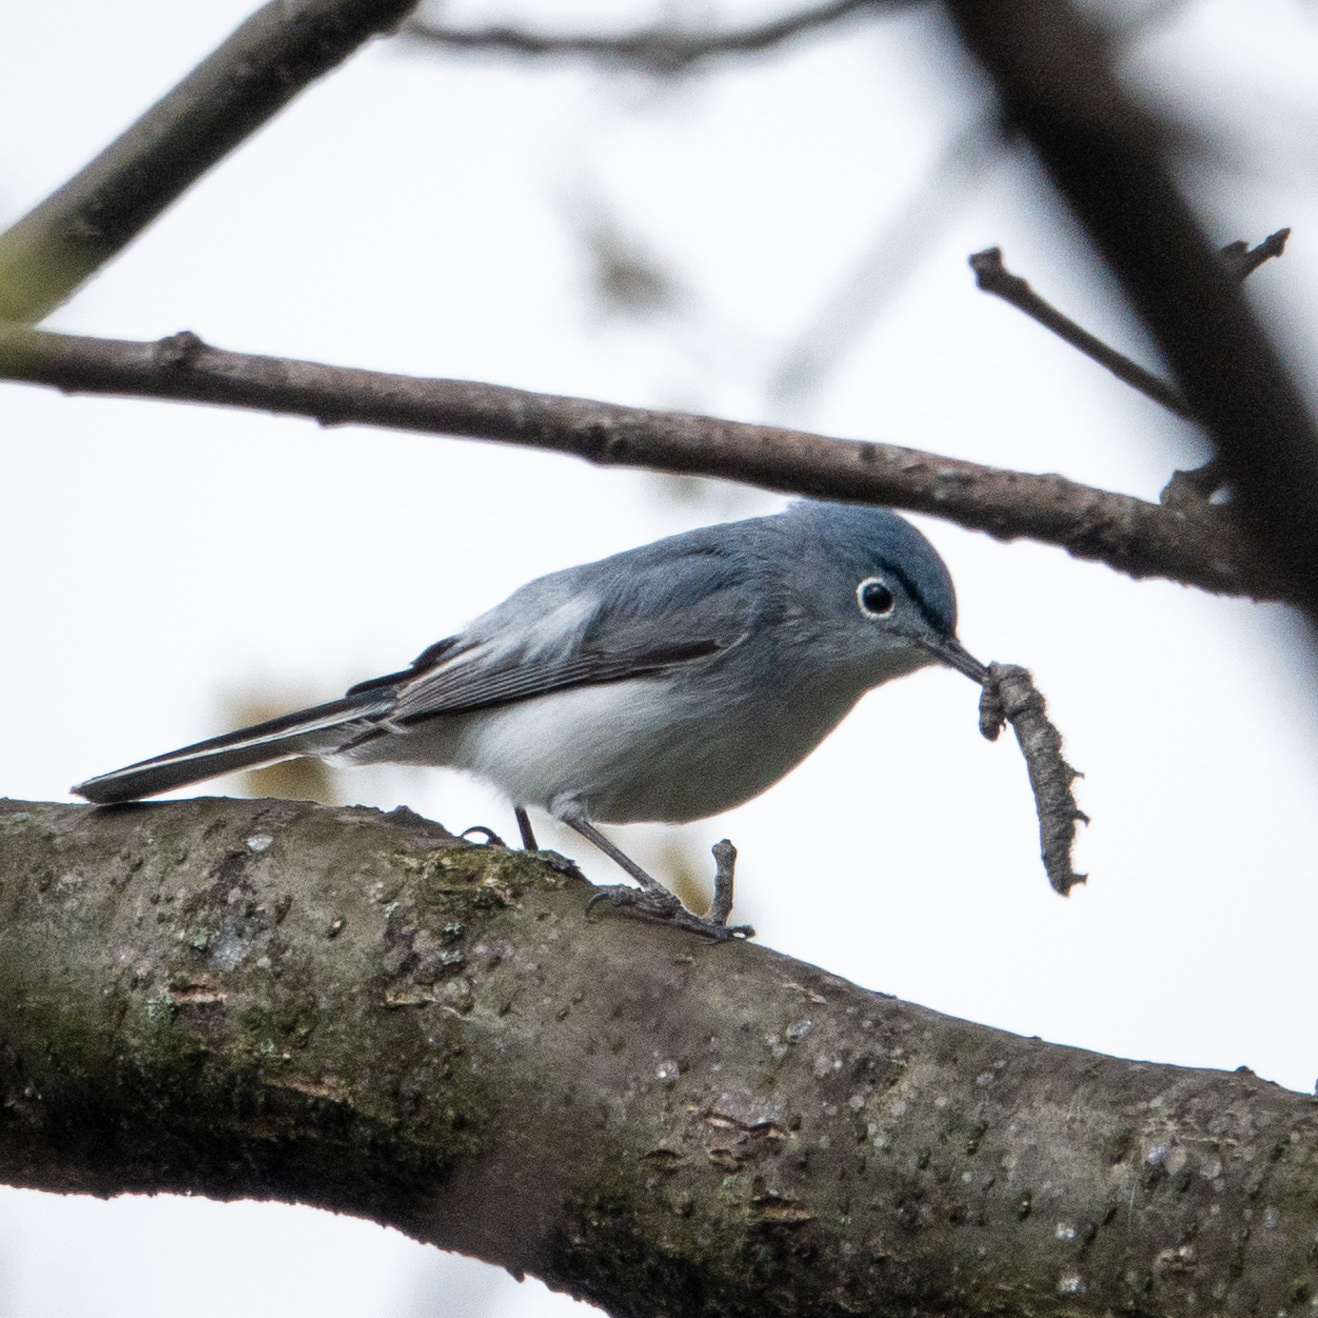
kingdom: Animalia
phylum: Chordata
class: Aves
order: Passeriformes
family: Polioptilidae
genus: Polioptila
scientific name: Polioptila caerulea
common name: Blue-gray gnatcatcher
